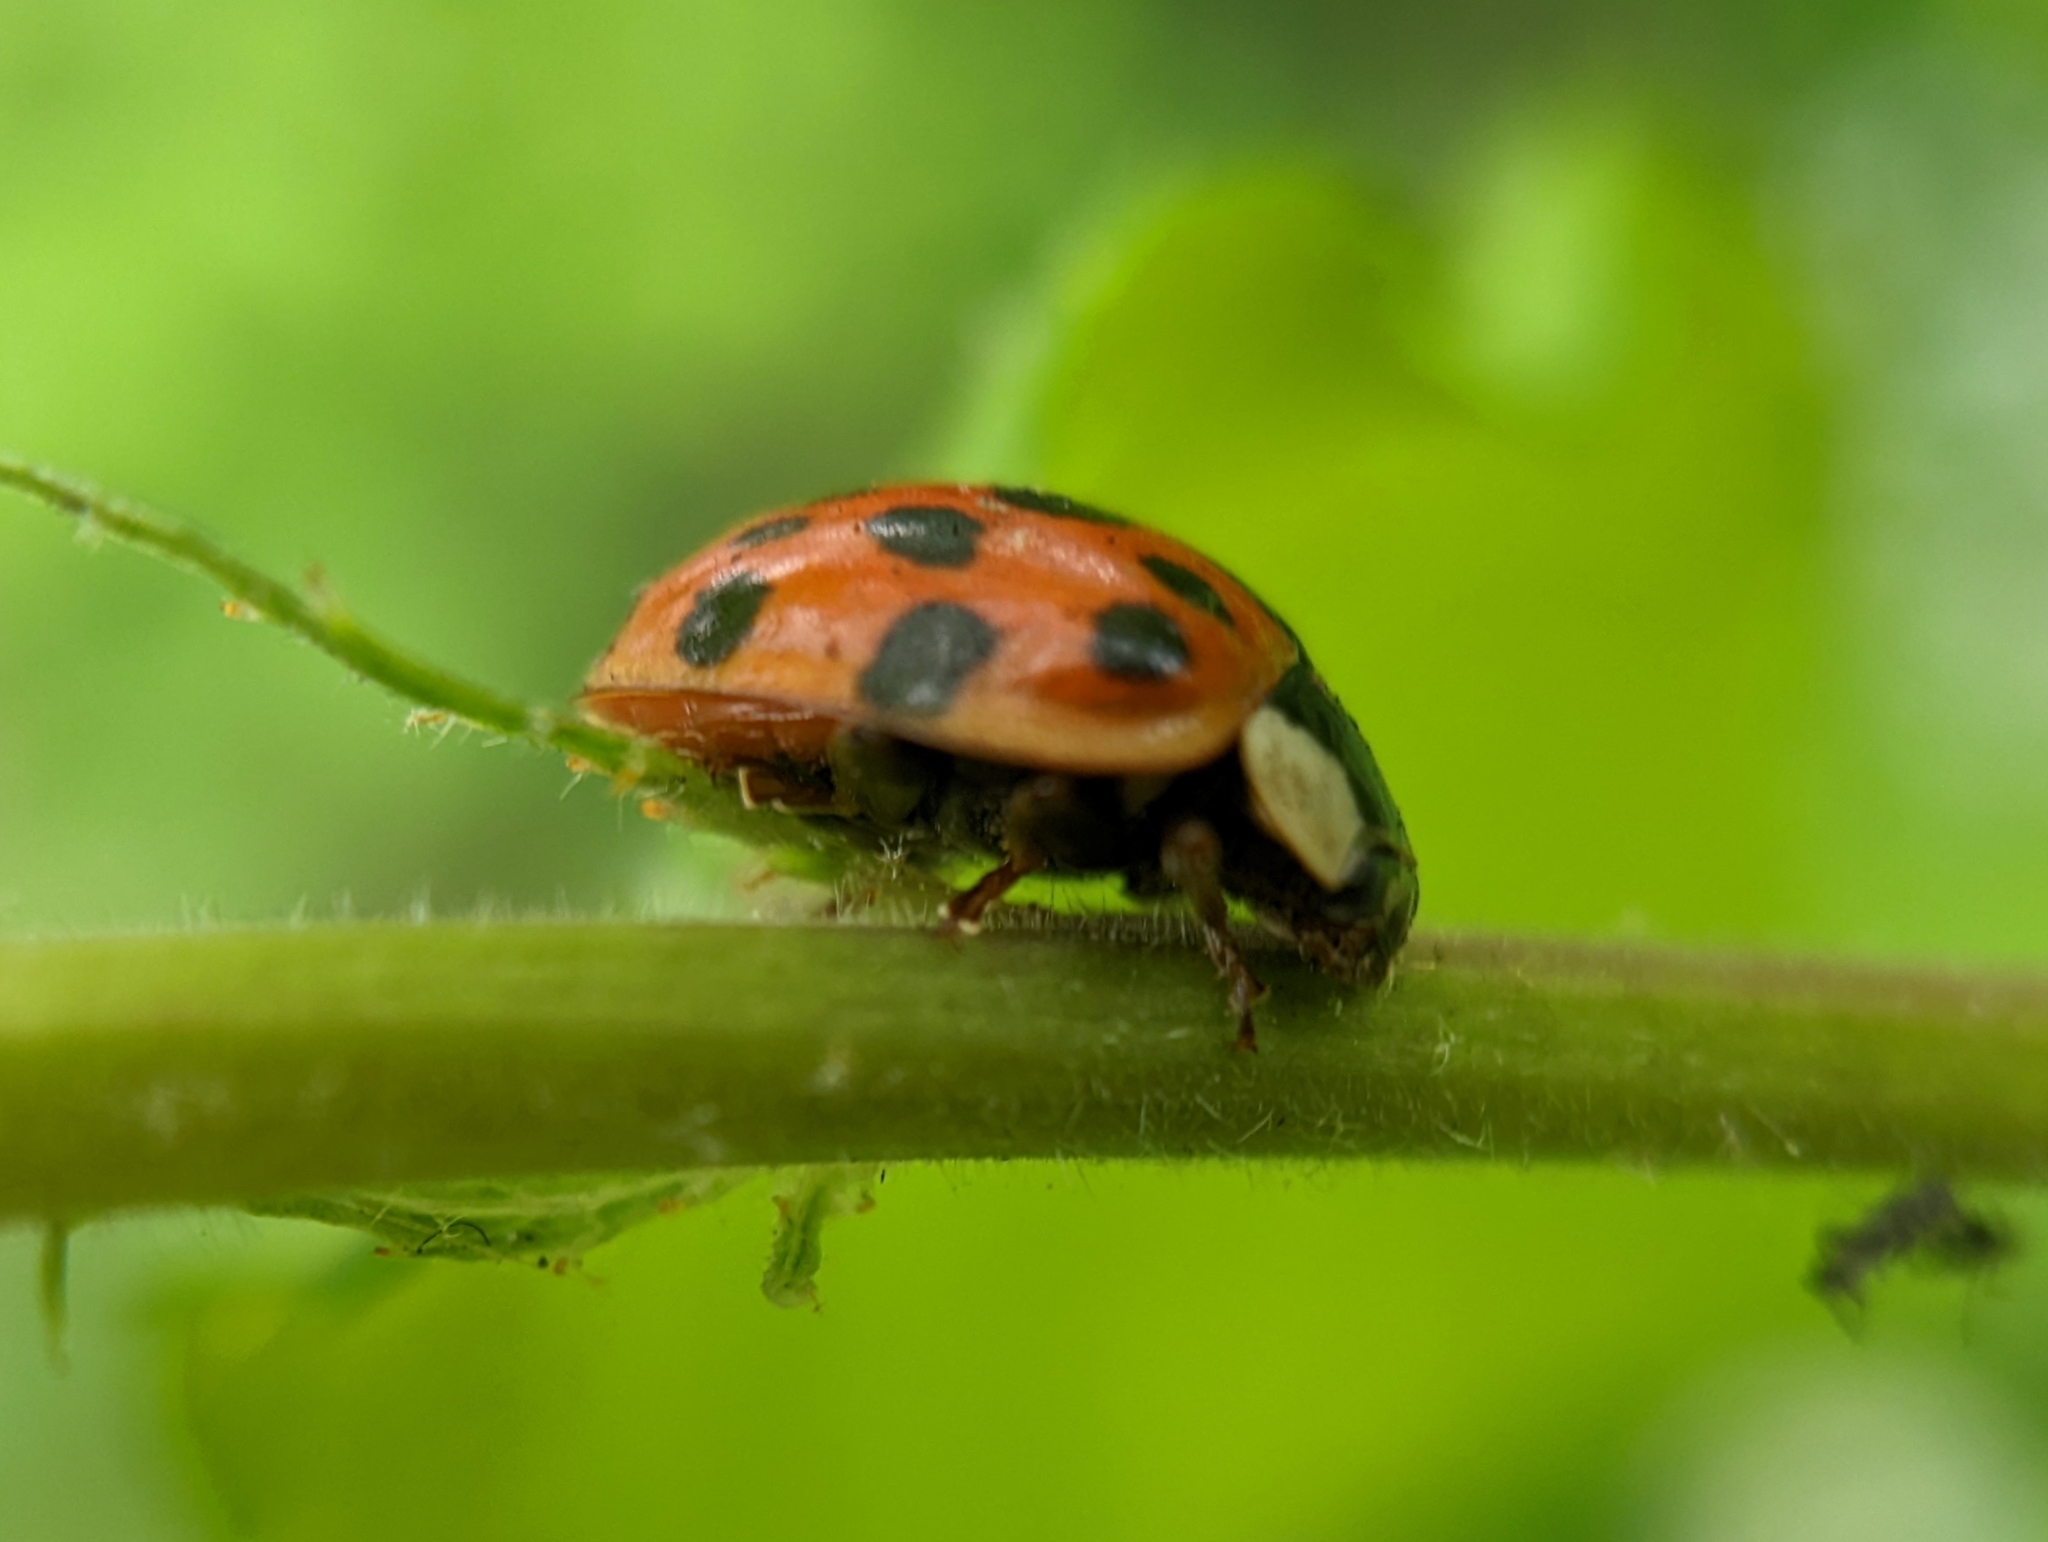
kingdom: Animalia
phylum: Arthropoda
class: Insecta
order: Coleoptera
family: Coccinellidae
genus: Harmonia
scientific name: Harmonia axyridis
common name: Harlequin ladybird
